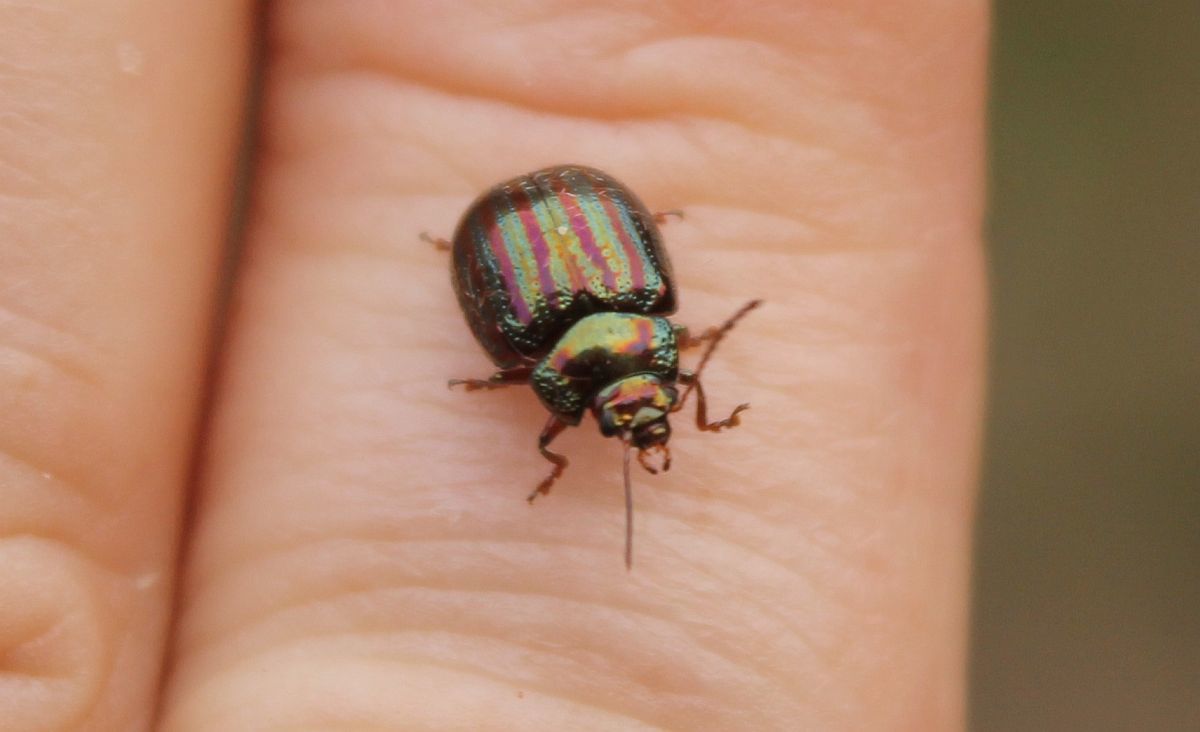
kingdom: Animalia
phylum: Arthropoda
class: Insecta
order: Coleoptera
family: Chrysomelidae
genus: Chrysolina
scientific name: Chrysolina americana
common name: Rosemary beetle
